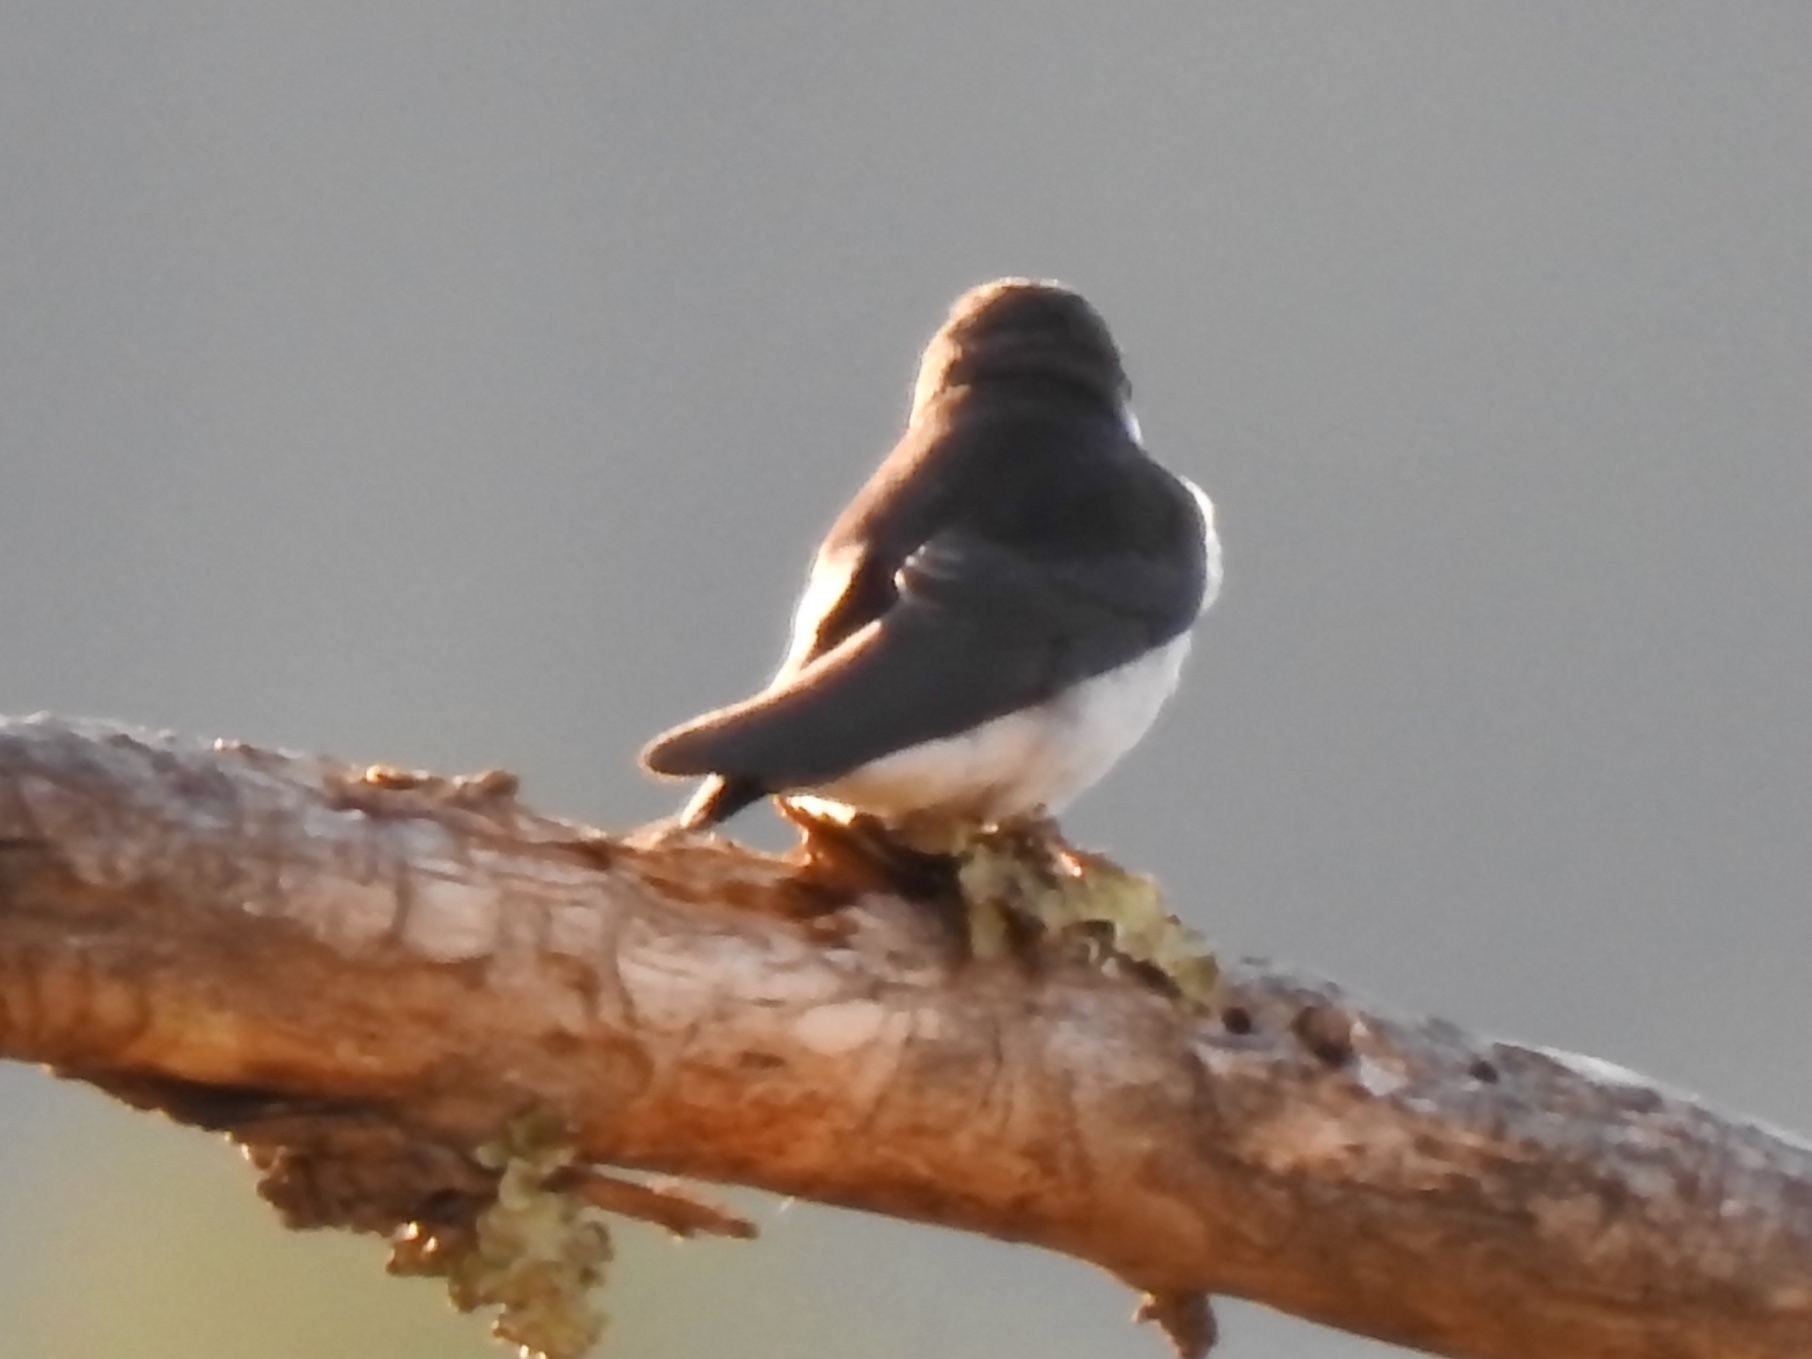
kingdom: Animalia
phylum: Chordata
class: Aves
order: Passeriformes
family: Hirundinidae
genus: Tachycineta
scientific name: Tachycineta thalassina
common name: Violet-green swallow
